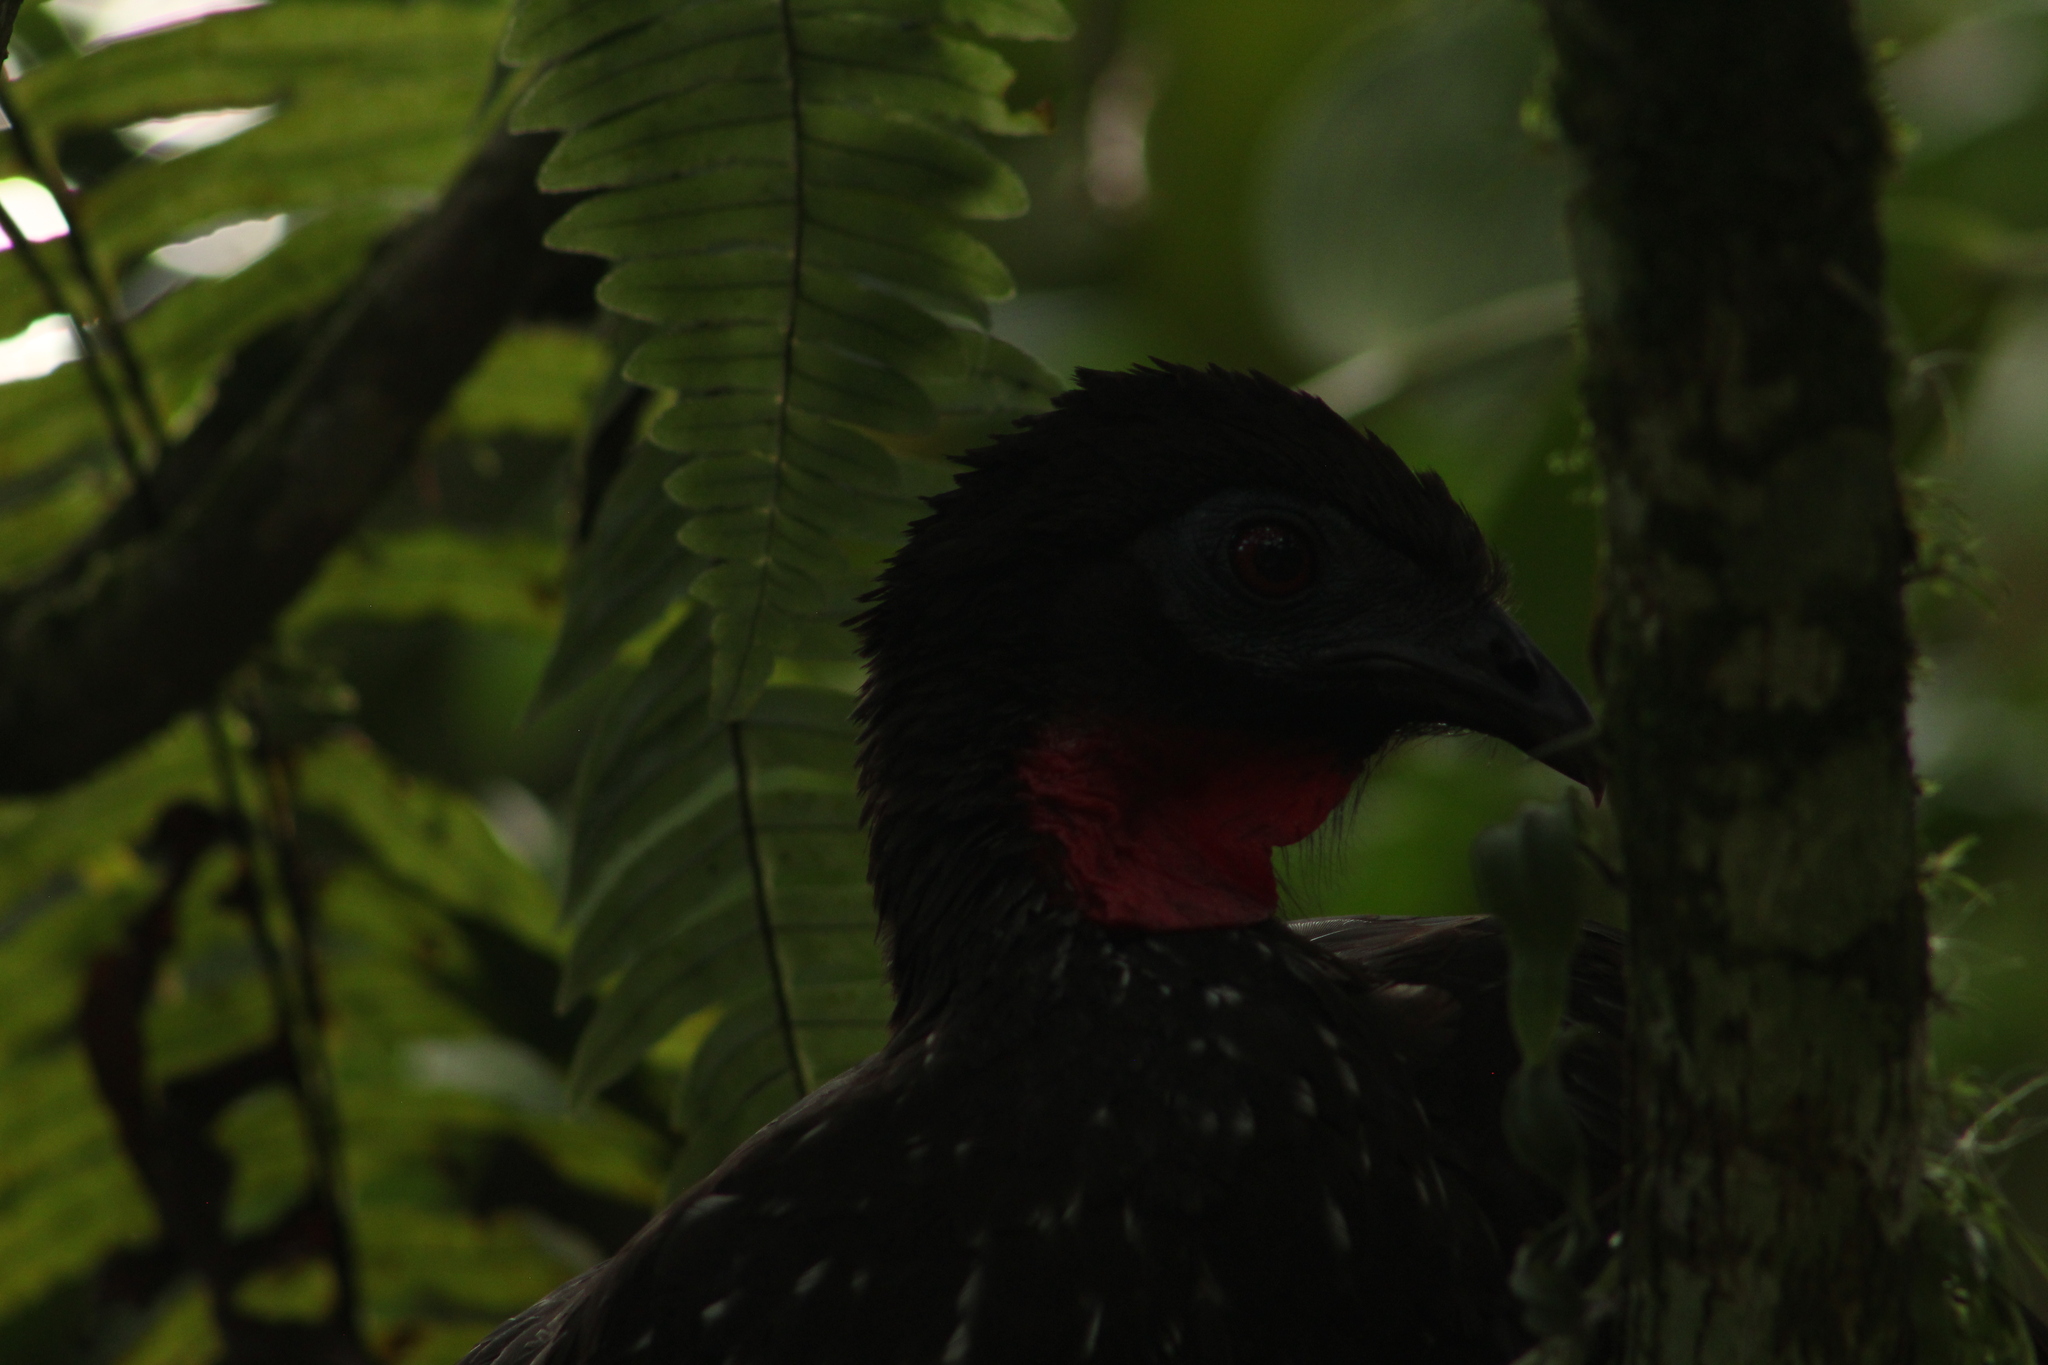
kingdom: Animalia
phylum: Chordata
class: Aves
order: Galliformes
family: Cracidae
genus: Penelope
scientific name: Penelope purpurascens
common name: Crested guan
